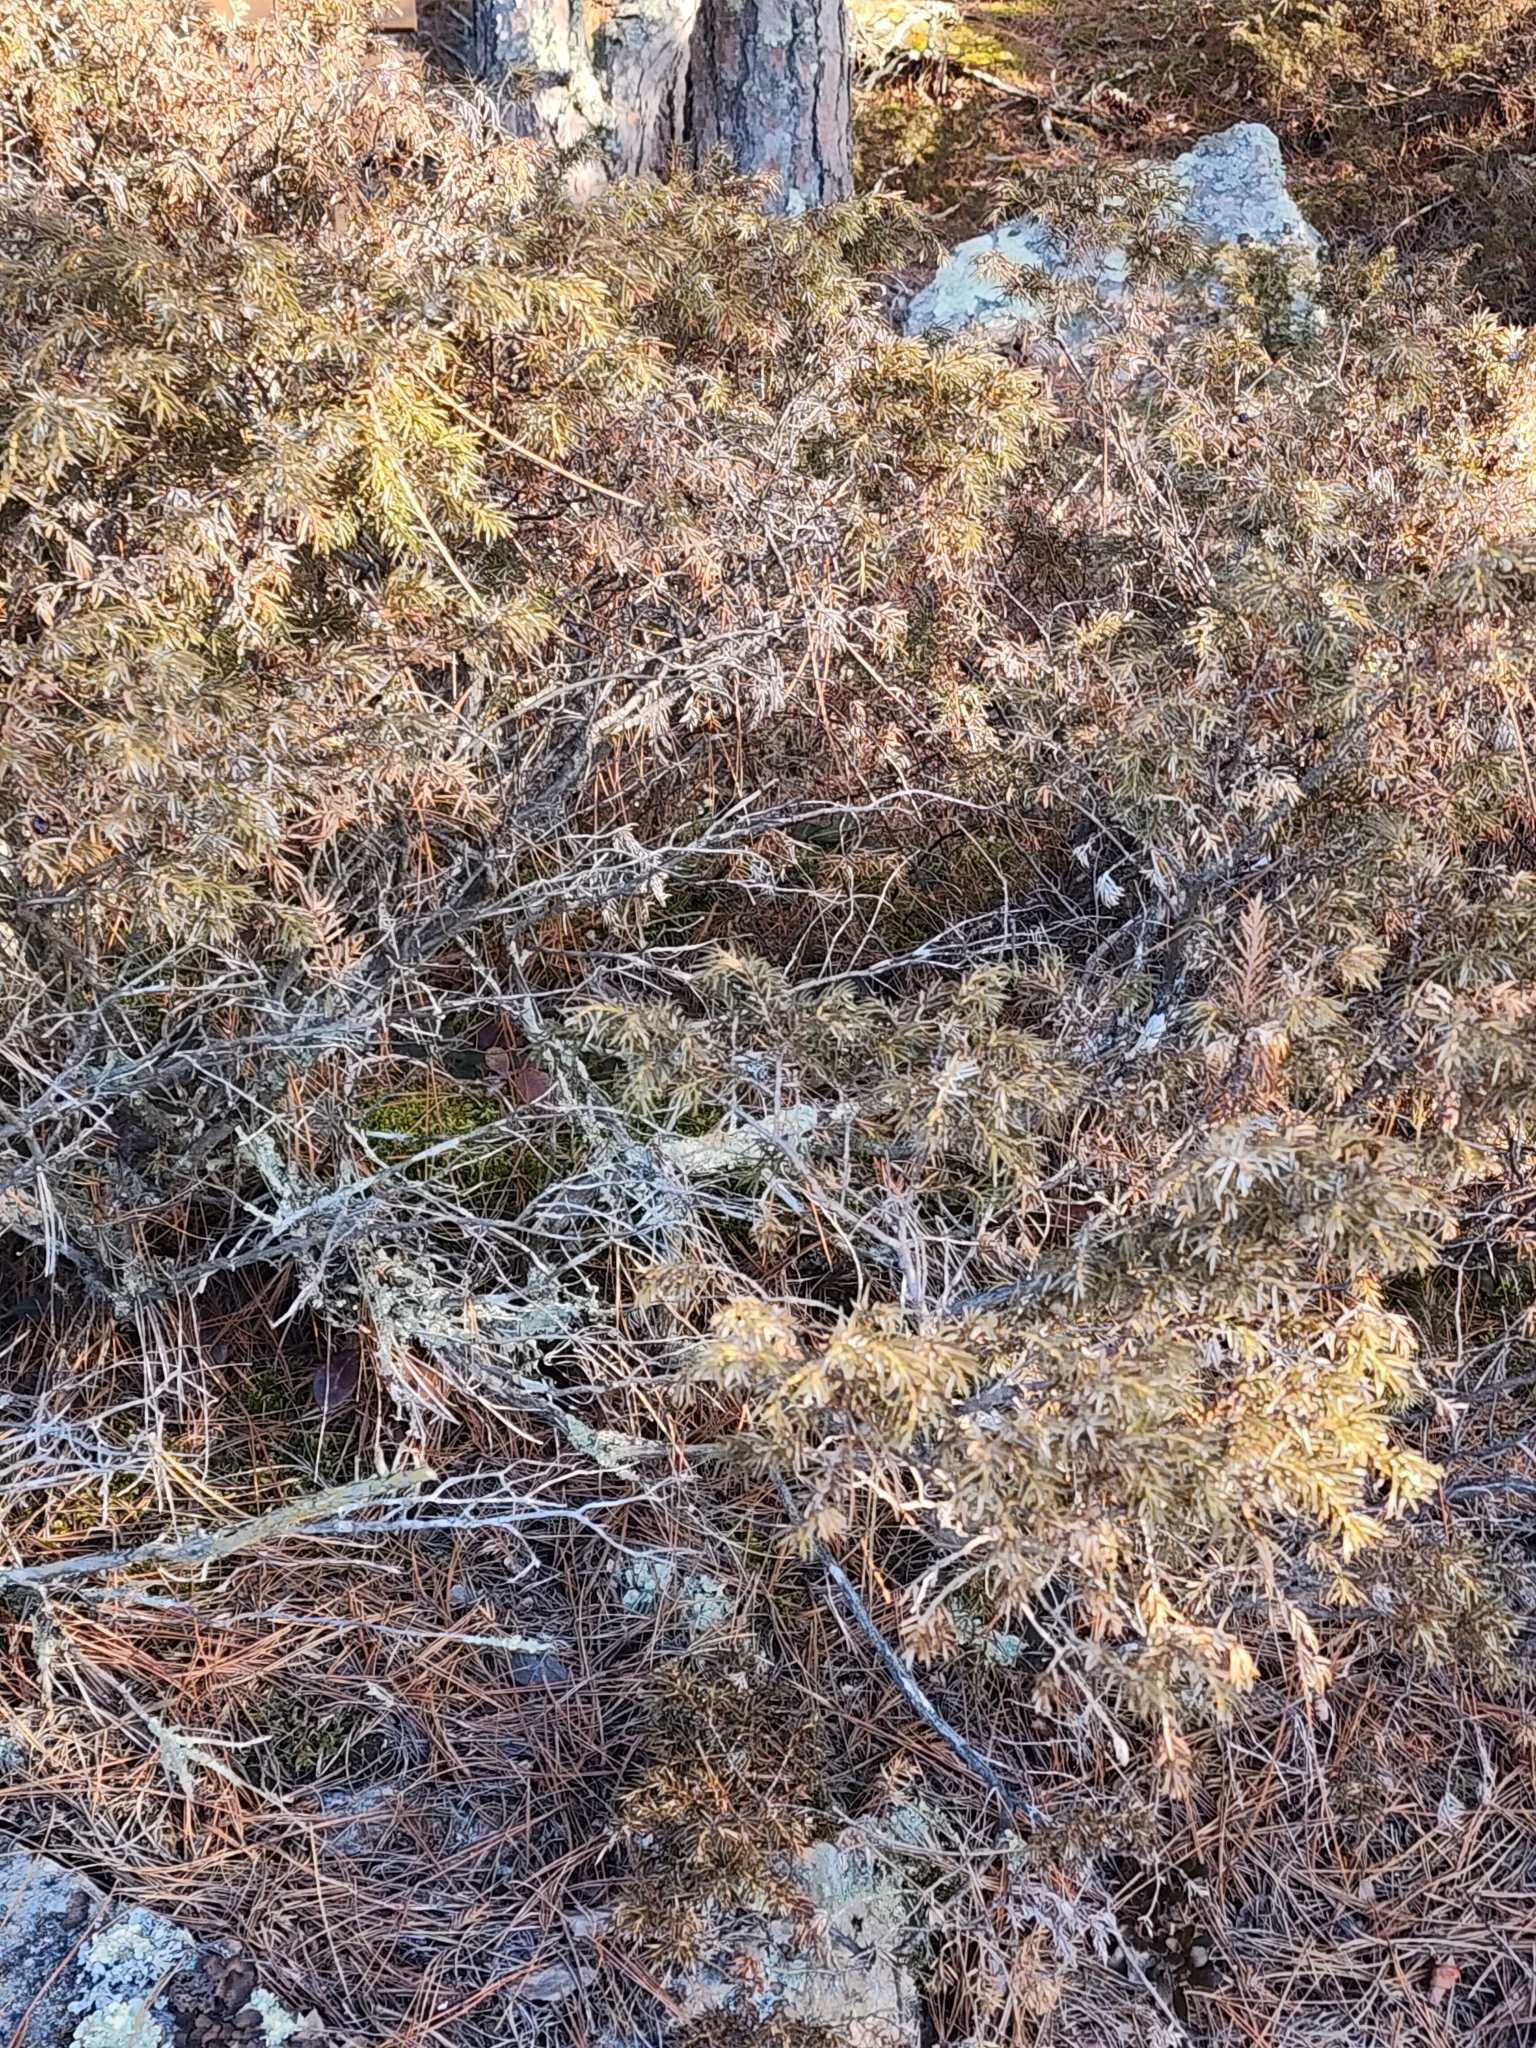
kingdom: Plantae
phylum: Tracheophyta
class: Pinopsida
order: Pinales
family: Cupressaceae
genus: Juniperus
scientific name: Juniperus communis
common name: Common juniper
